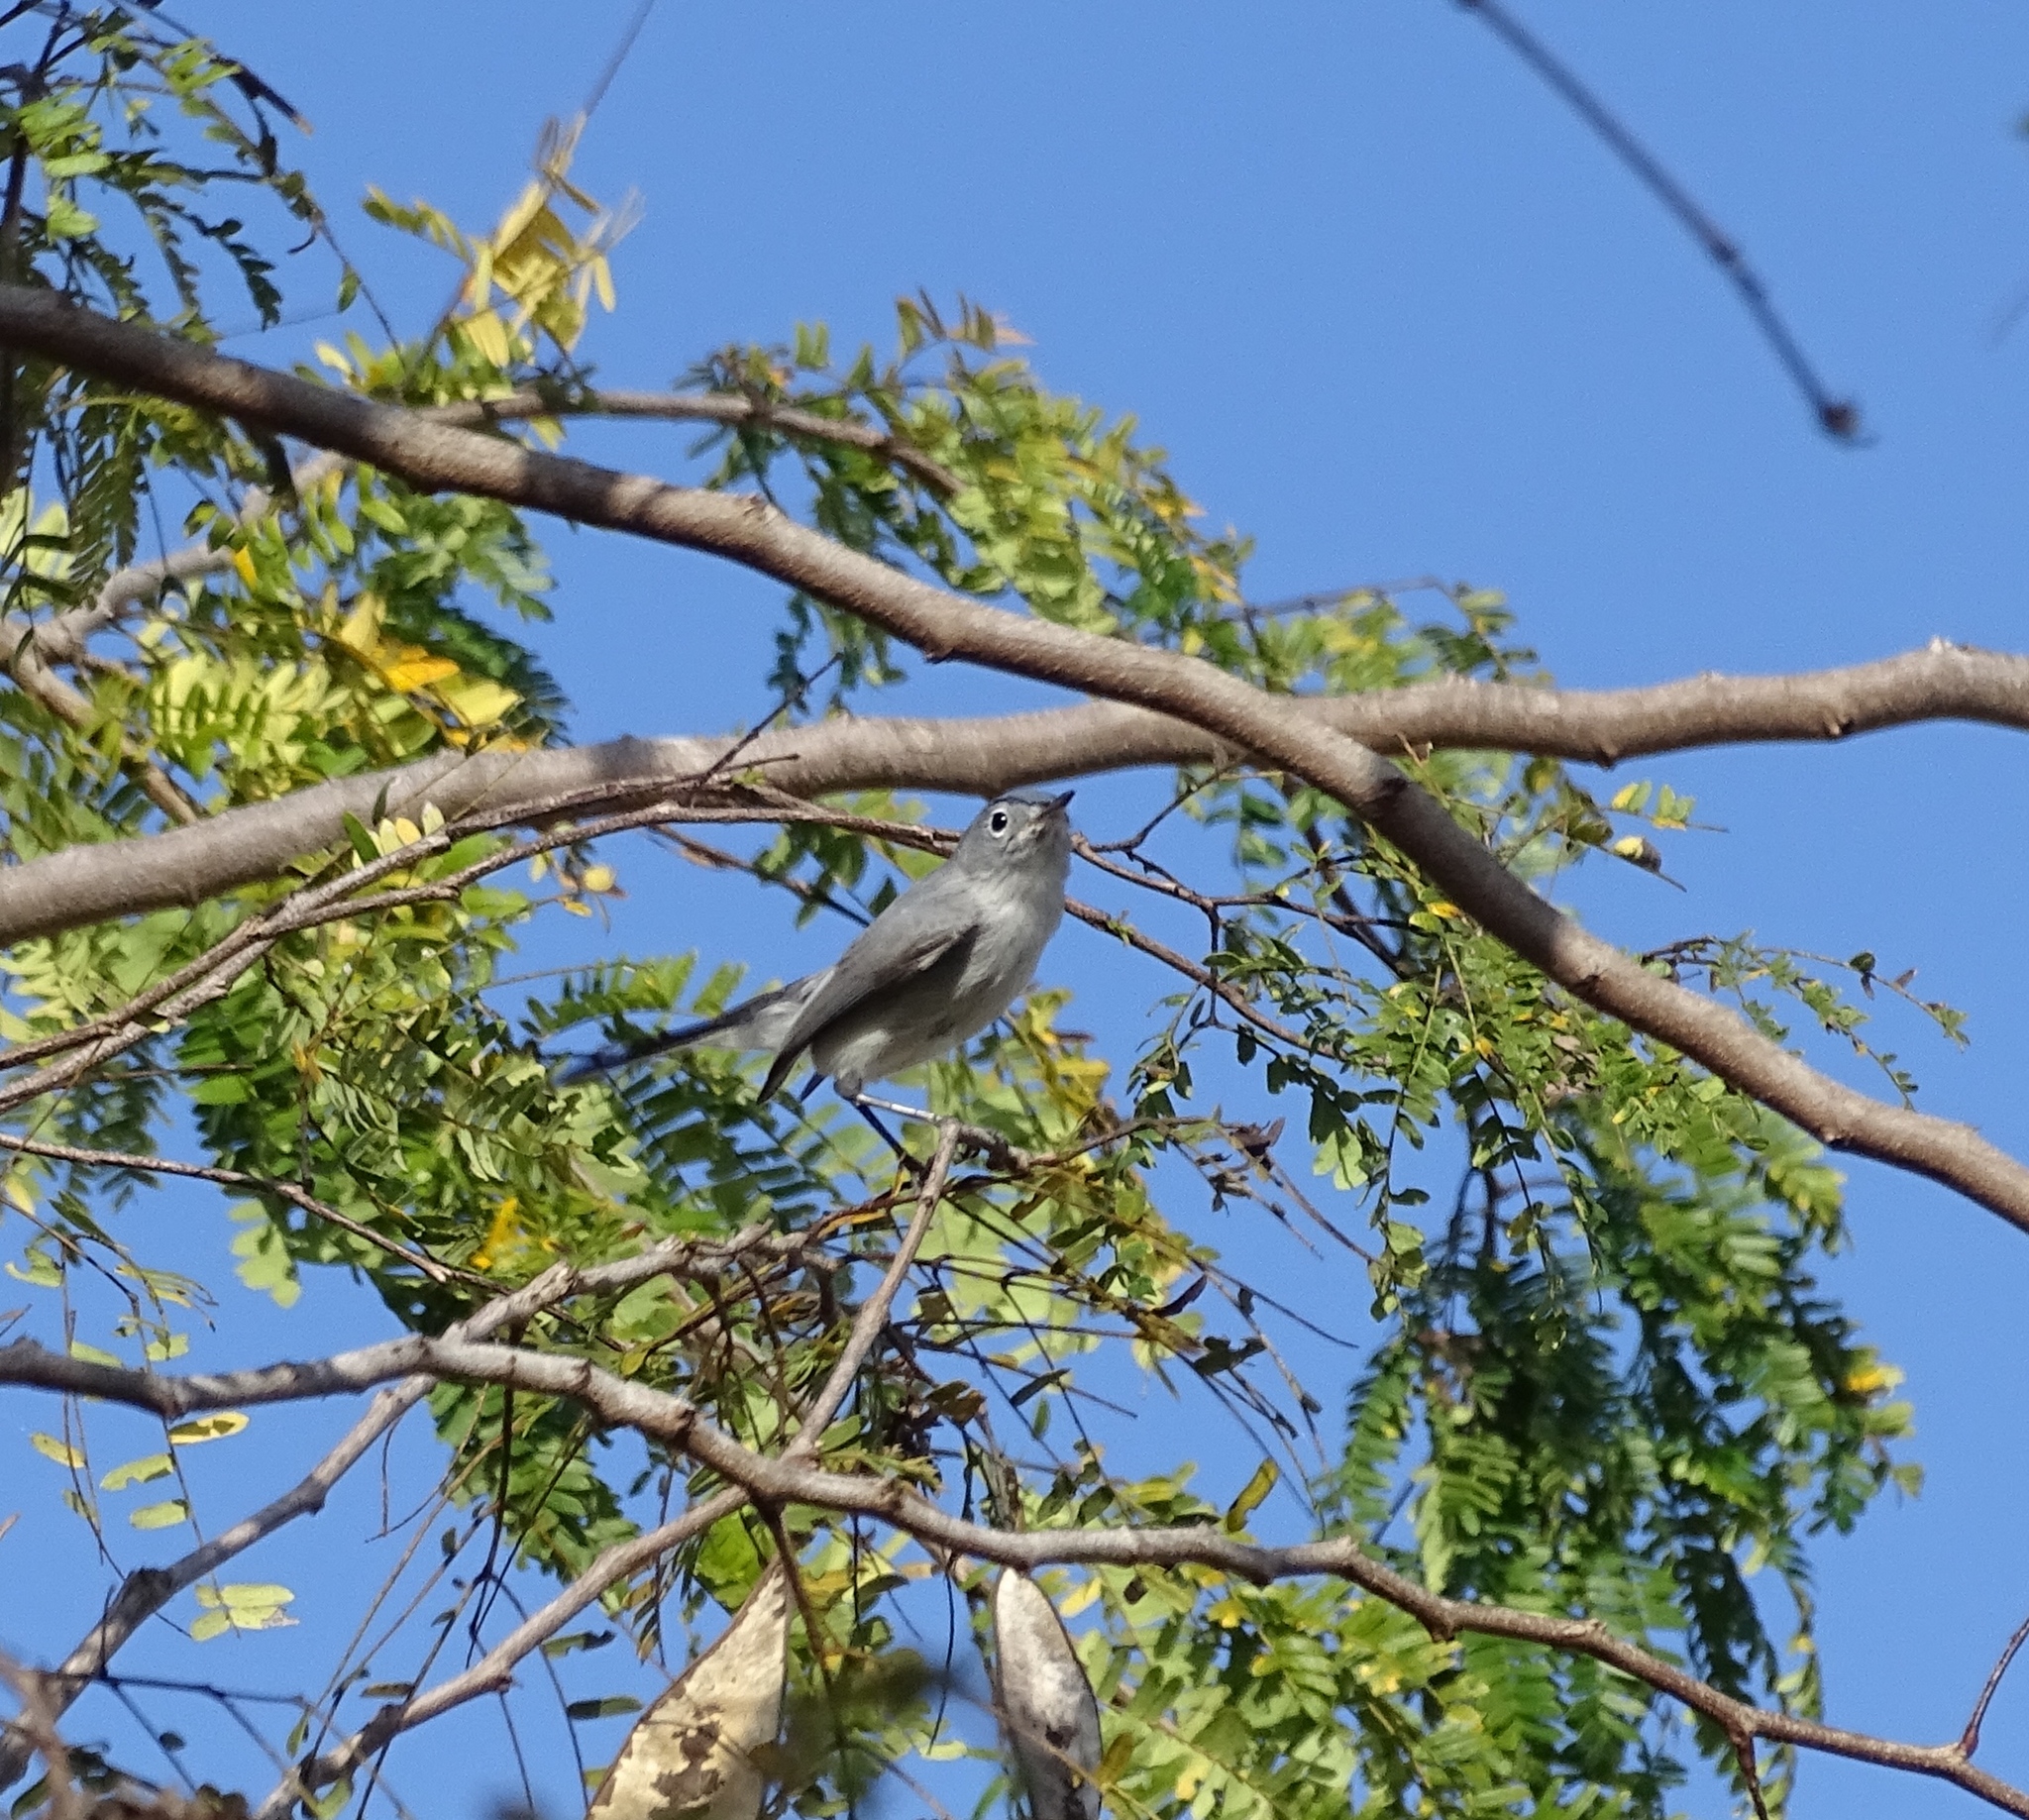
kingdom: Animalia
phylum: Chordata
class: Aves
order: Passeriformes
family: Polioptilidae
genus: Polioptila
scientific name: Polioptila caerulea
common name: Blue-gray gnatcatcher
